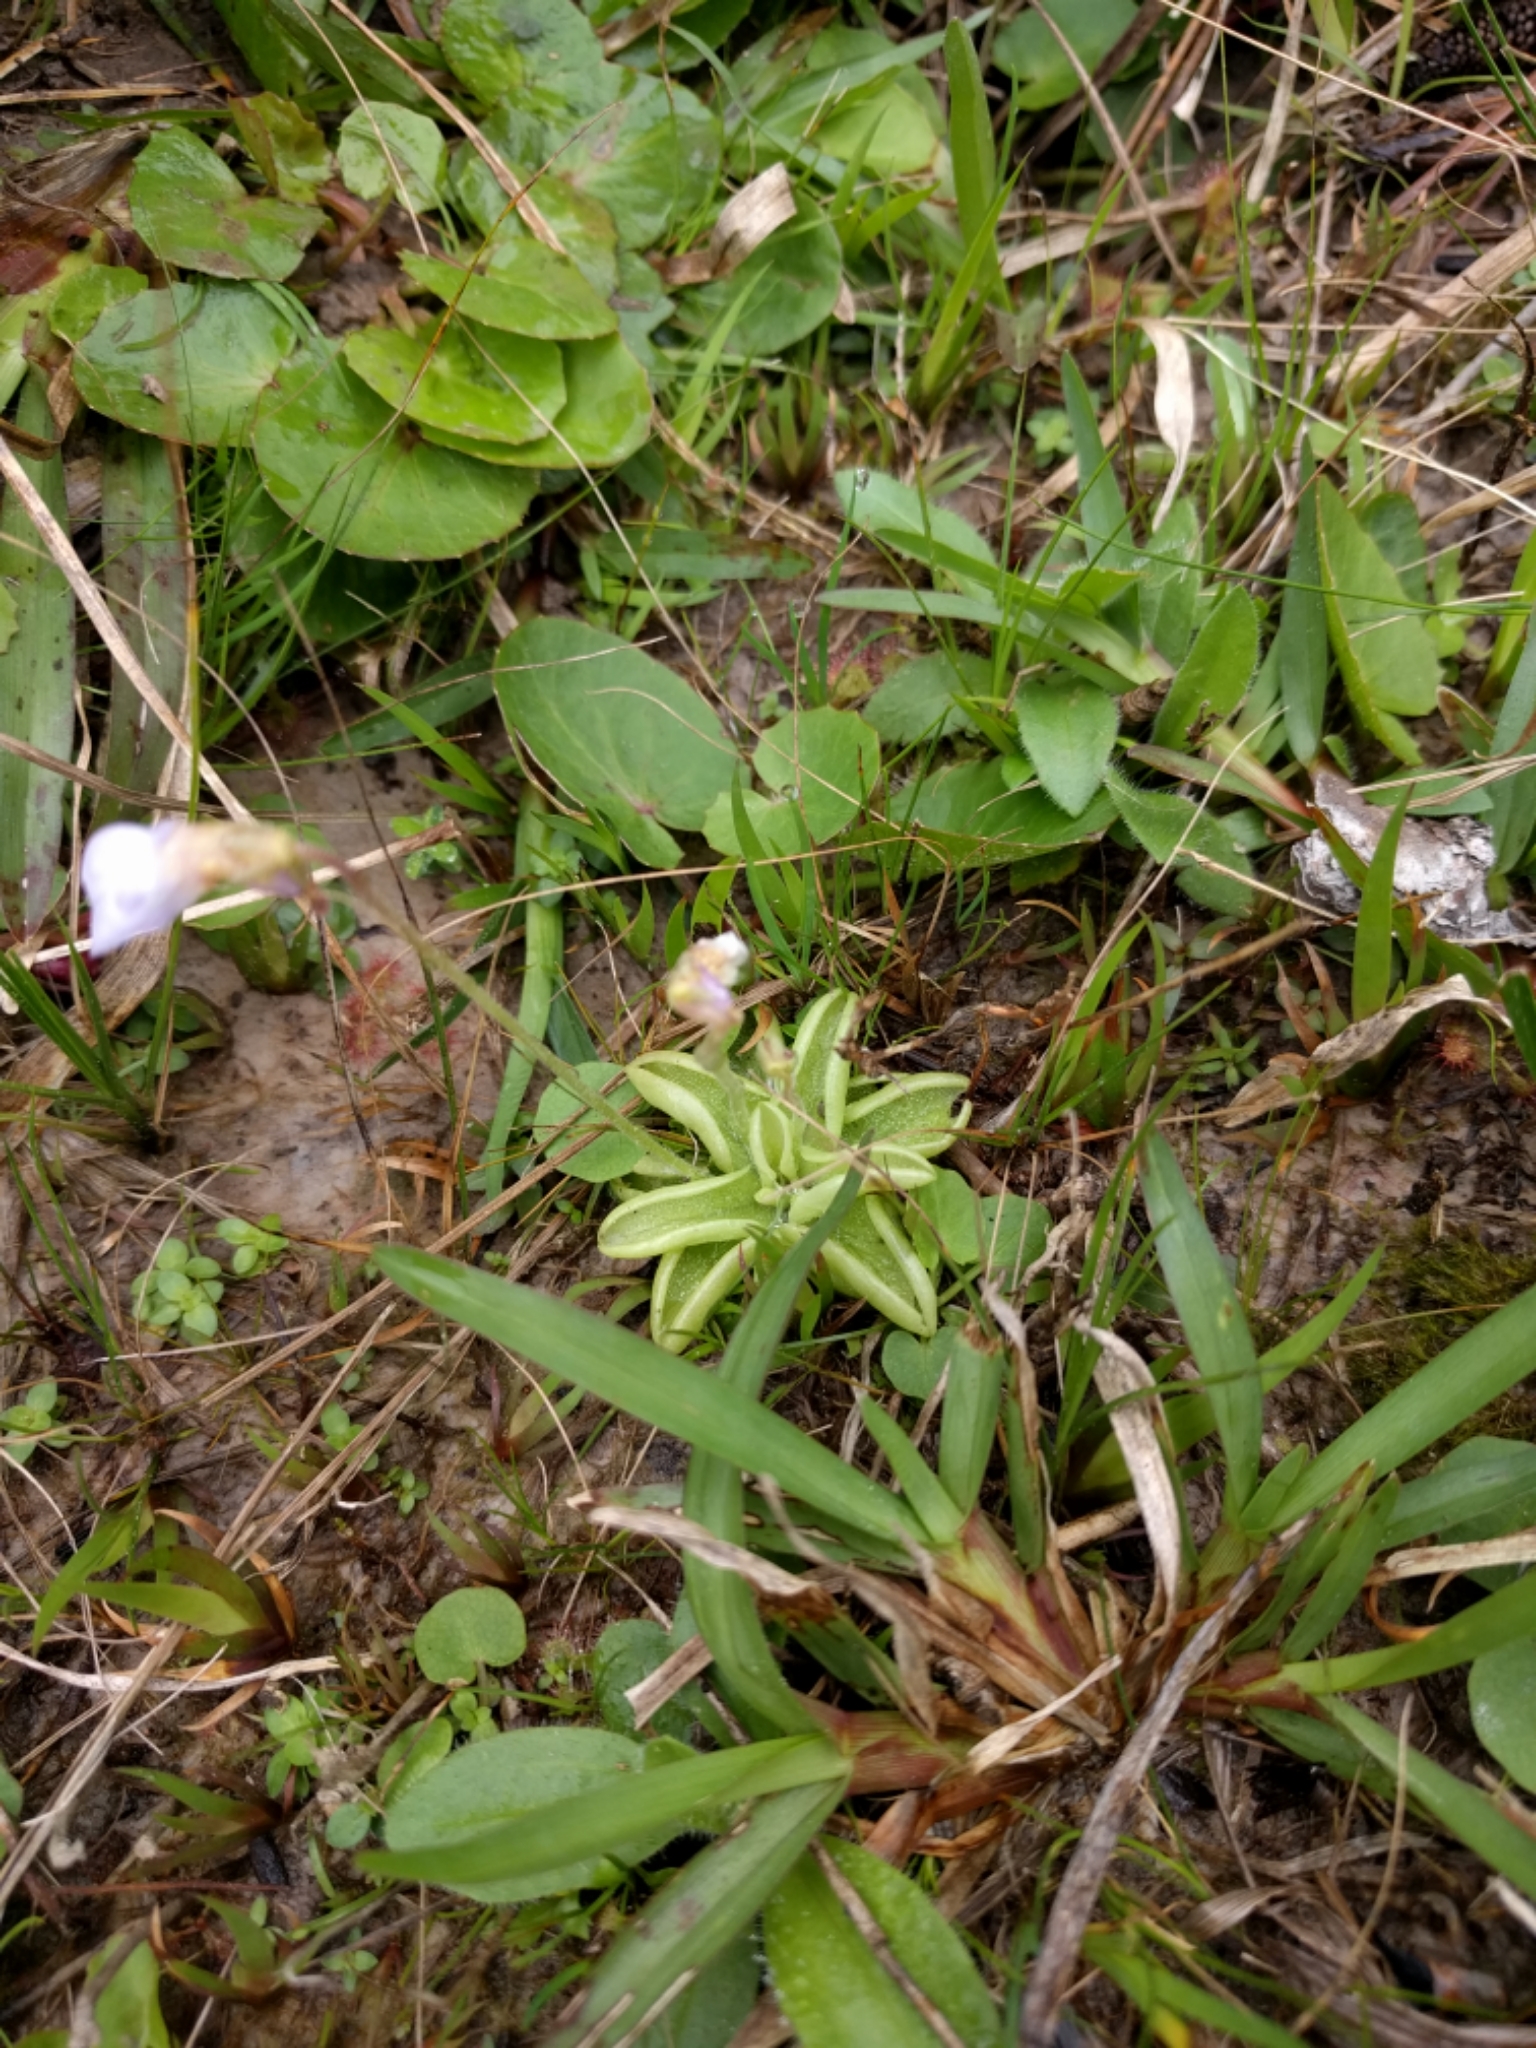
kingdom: Plantae
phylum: Tracheophyta
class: Magnoliopsida
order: Lamiales
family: Lentibulariaceae
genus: Pinguicula
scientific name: Pinguicula pumila
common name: Small butterwort
